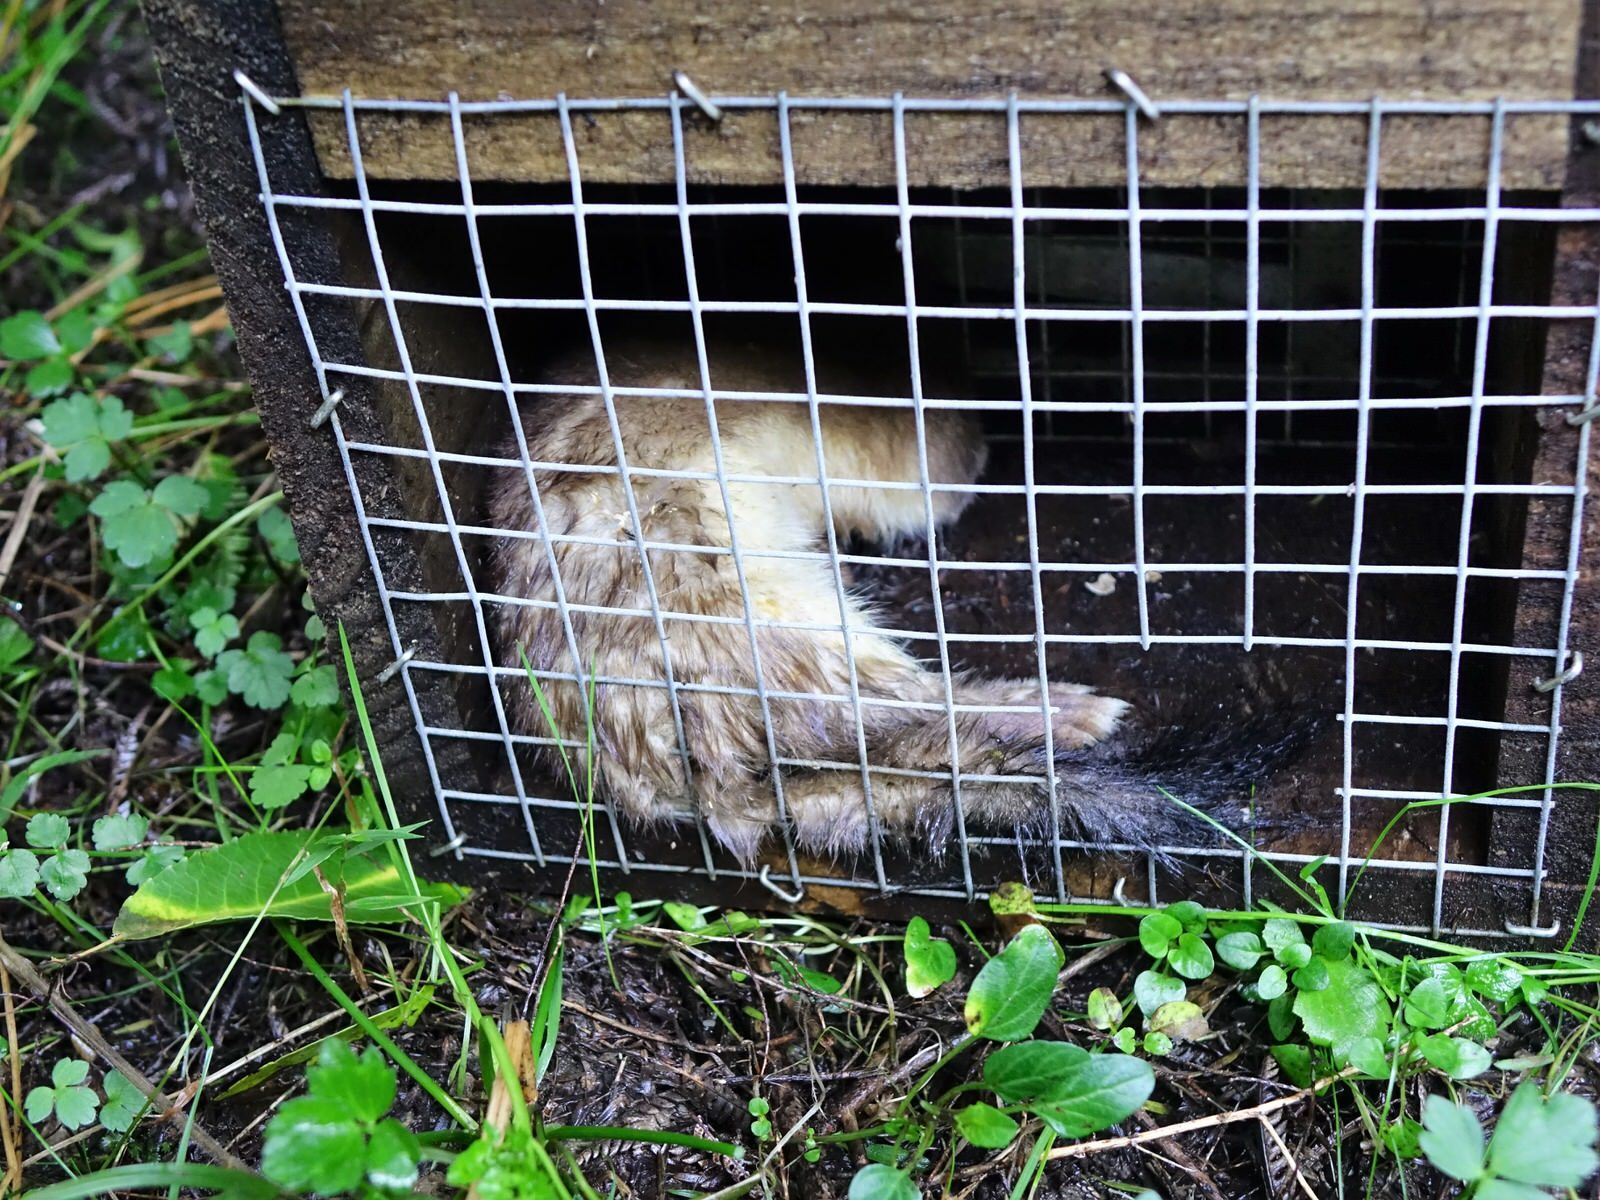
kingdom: Animalia
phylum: Chordata
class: Mammalia
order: Carnivora
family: Mustelidae
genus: Mustela
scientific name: Mustela erminea
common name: Stoat
